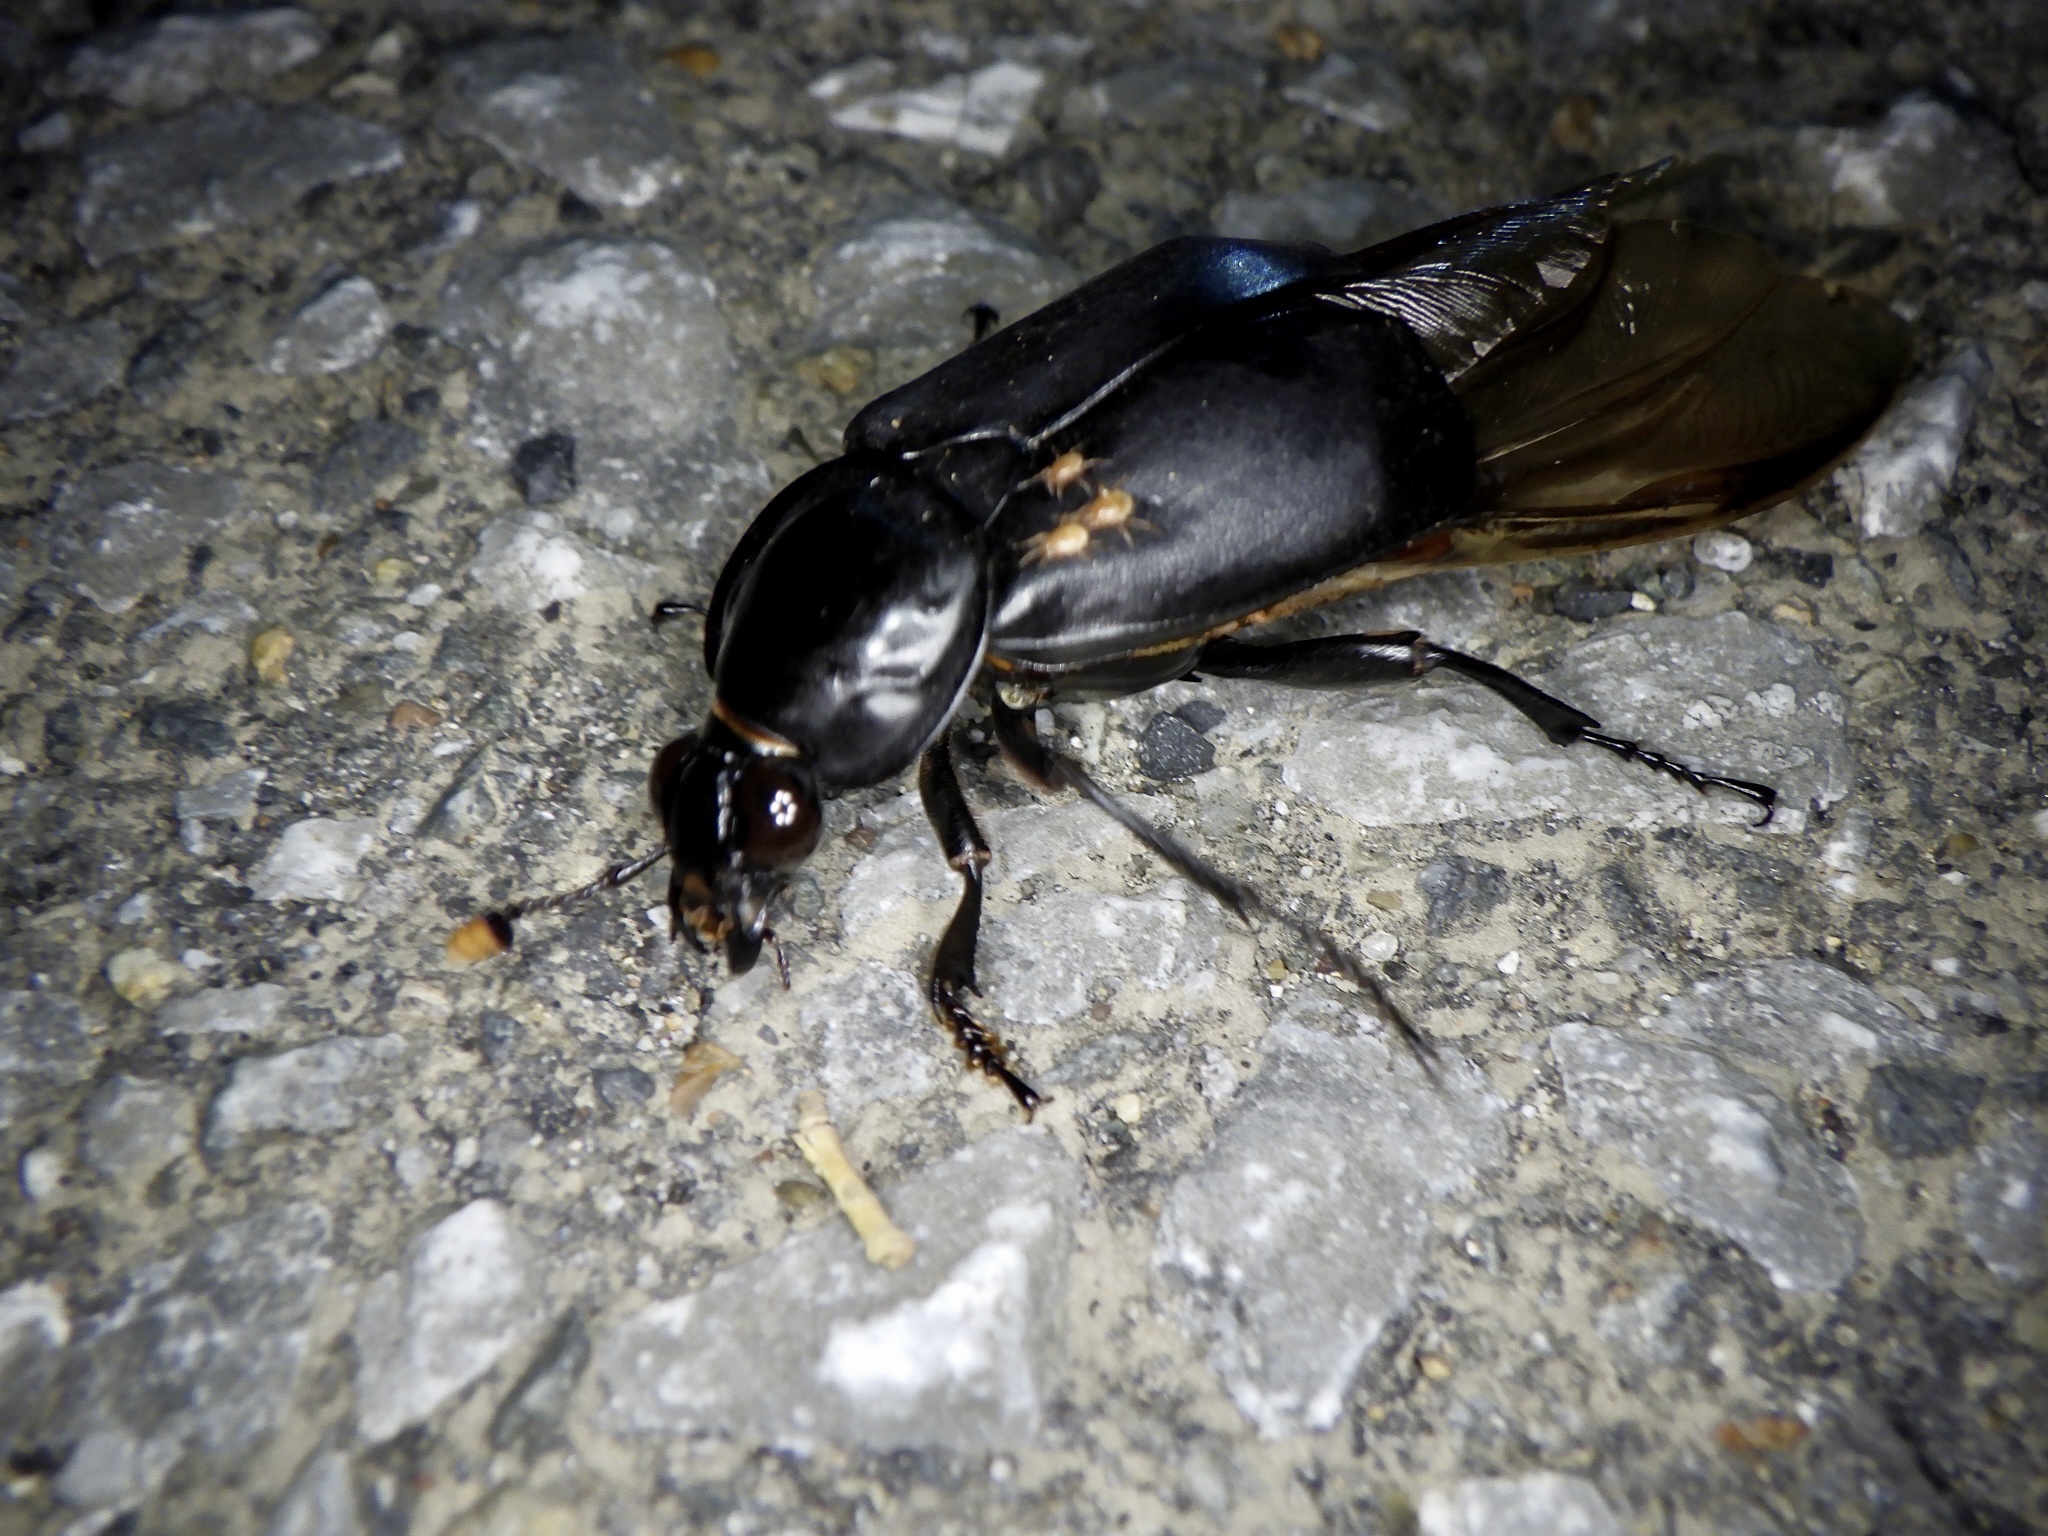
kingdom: Animalia
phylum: Arthropoda
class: Insecta
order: Coleoptera
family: Staphylinidae
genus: Nicrophorus
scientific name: Nicrophorus concolor
